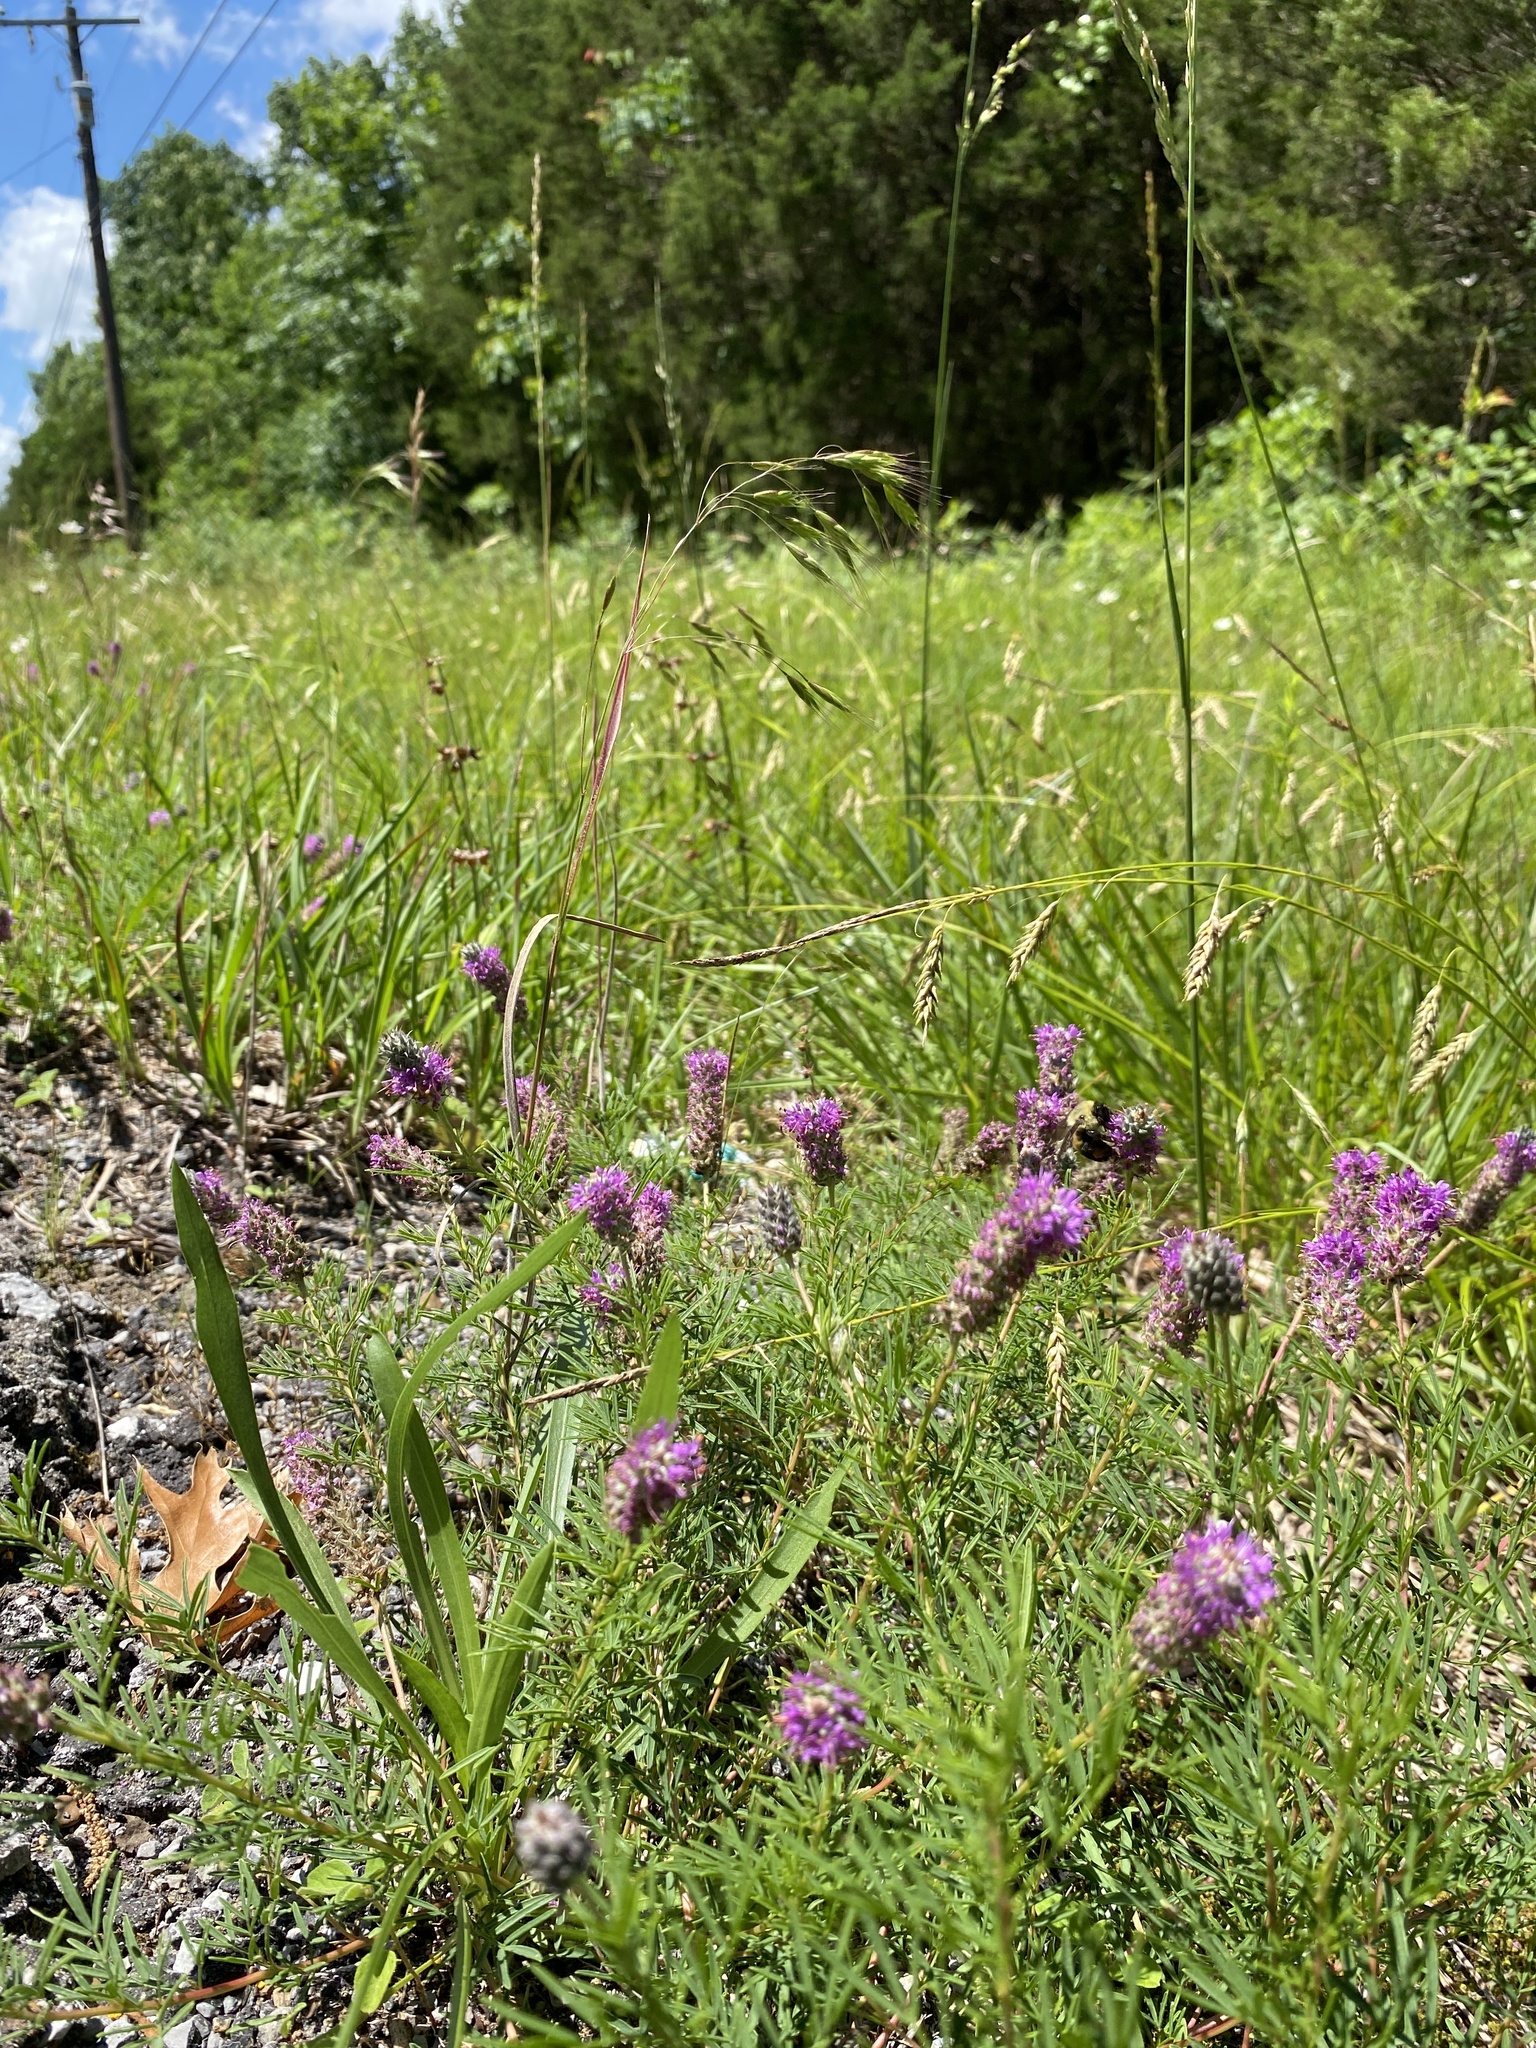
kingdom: Plantae
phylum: Tracheophyta
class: Magnoliopsida
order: Fabales
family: Fabaceae
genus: Dalea
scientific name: Dalea gattingeri
